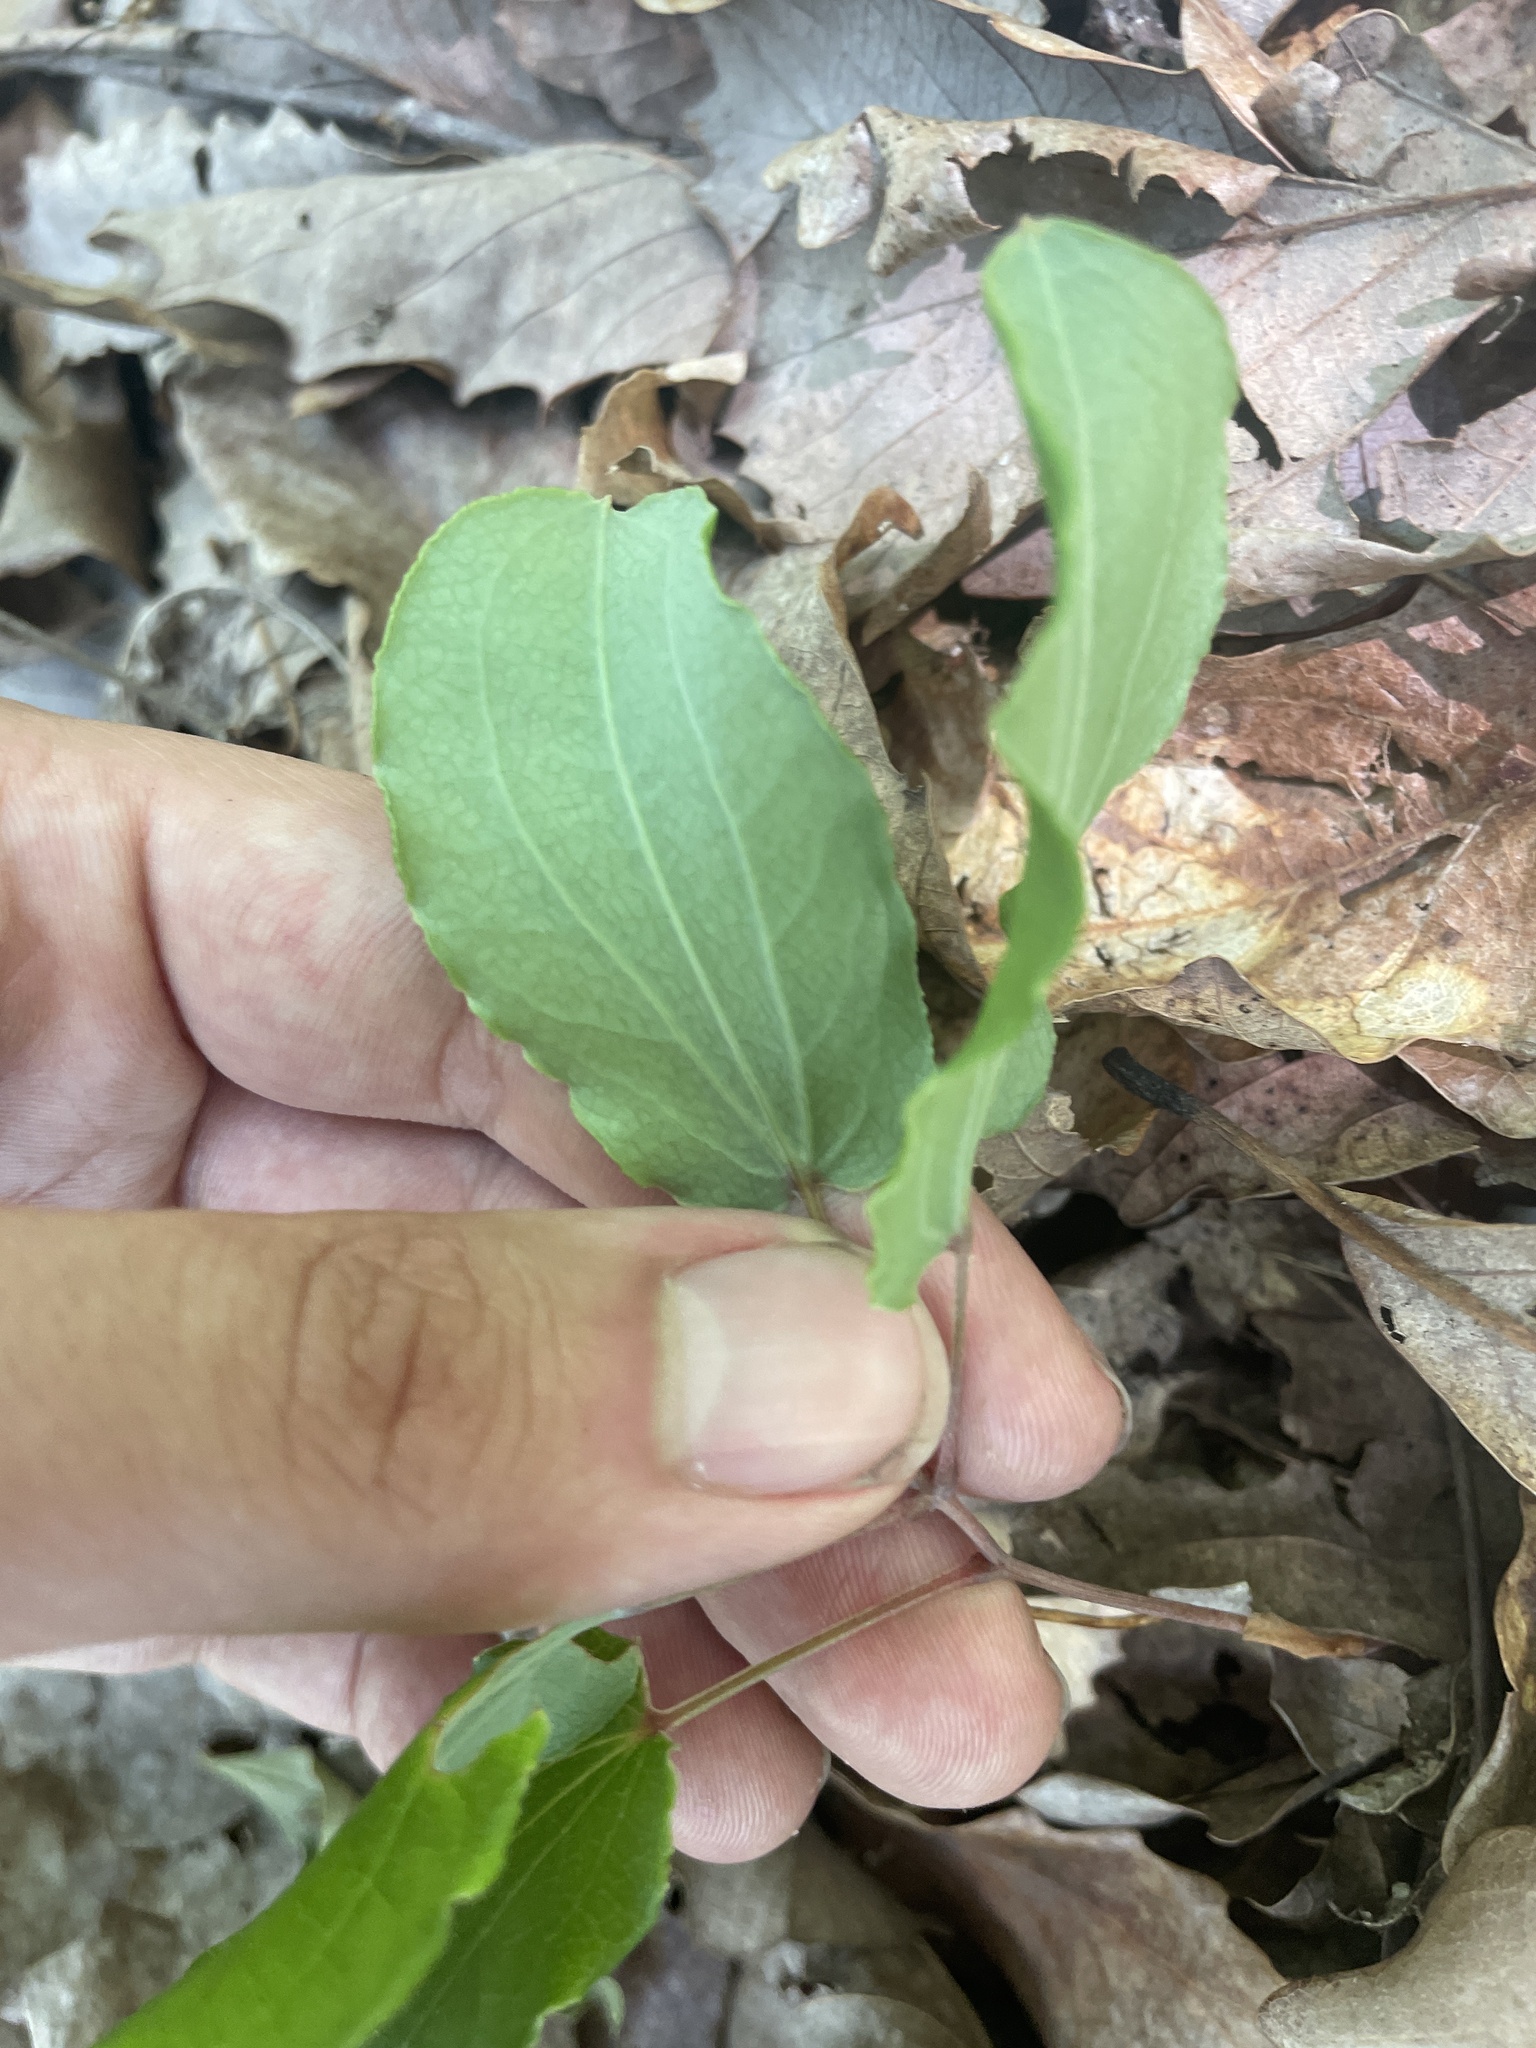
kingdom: Plantae
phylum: Tracheophyta
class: Liliopsida
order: Liliales
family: Smilacaceae
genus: Smilax
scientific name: Smilax biltmoreana
